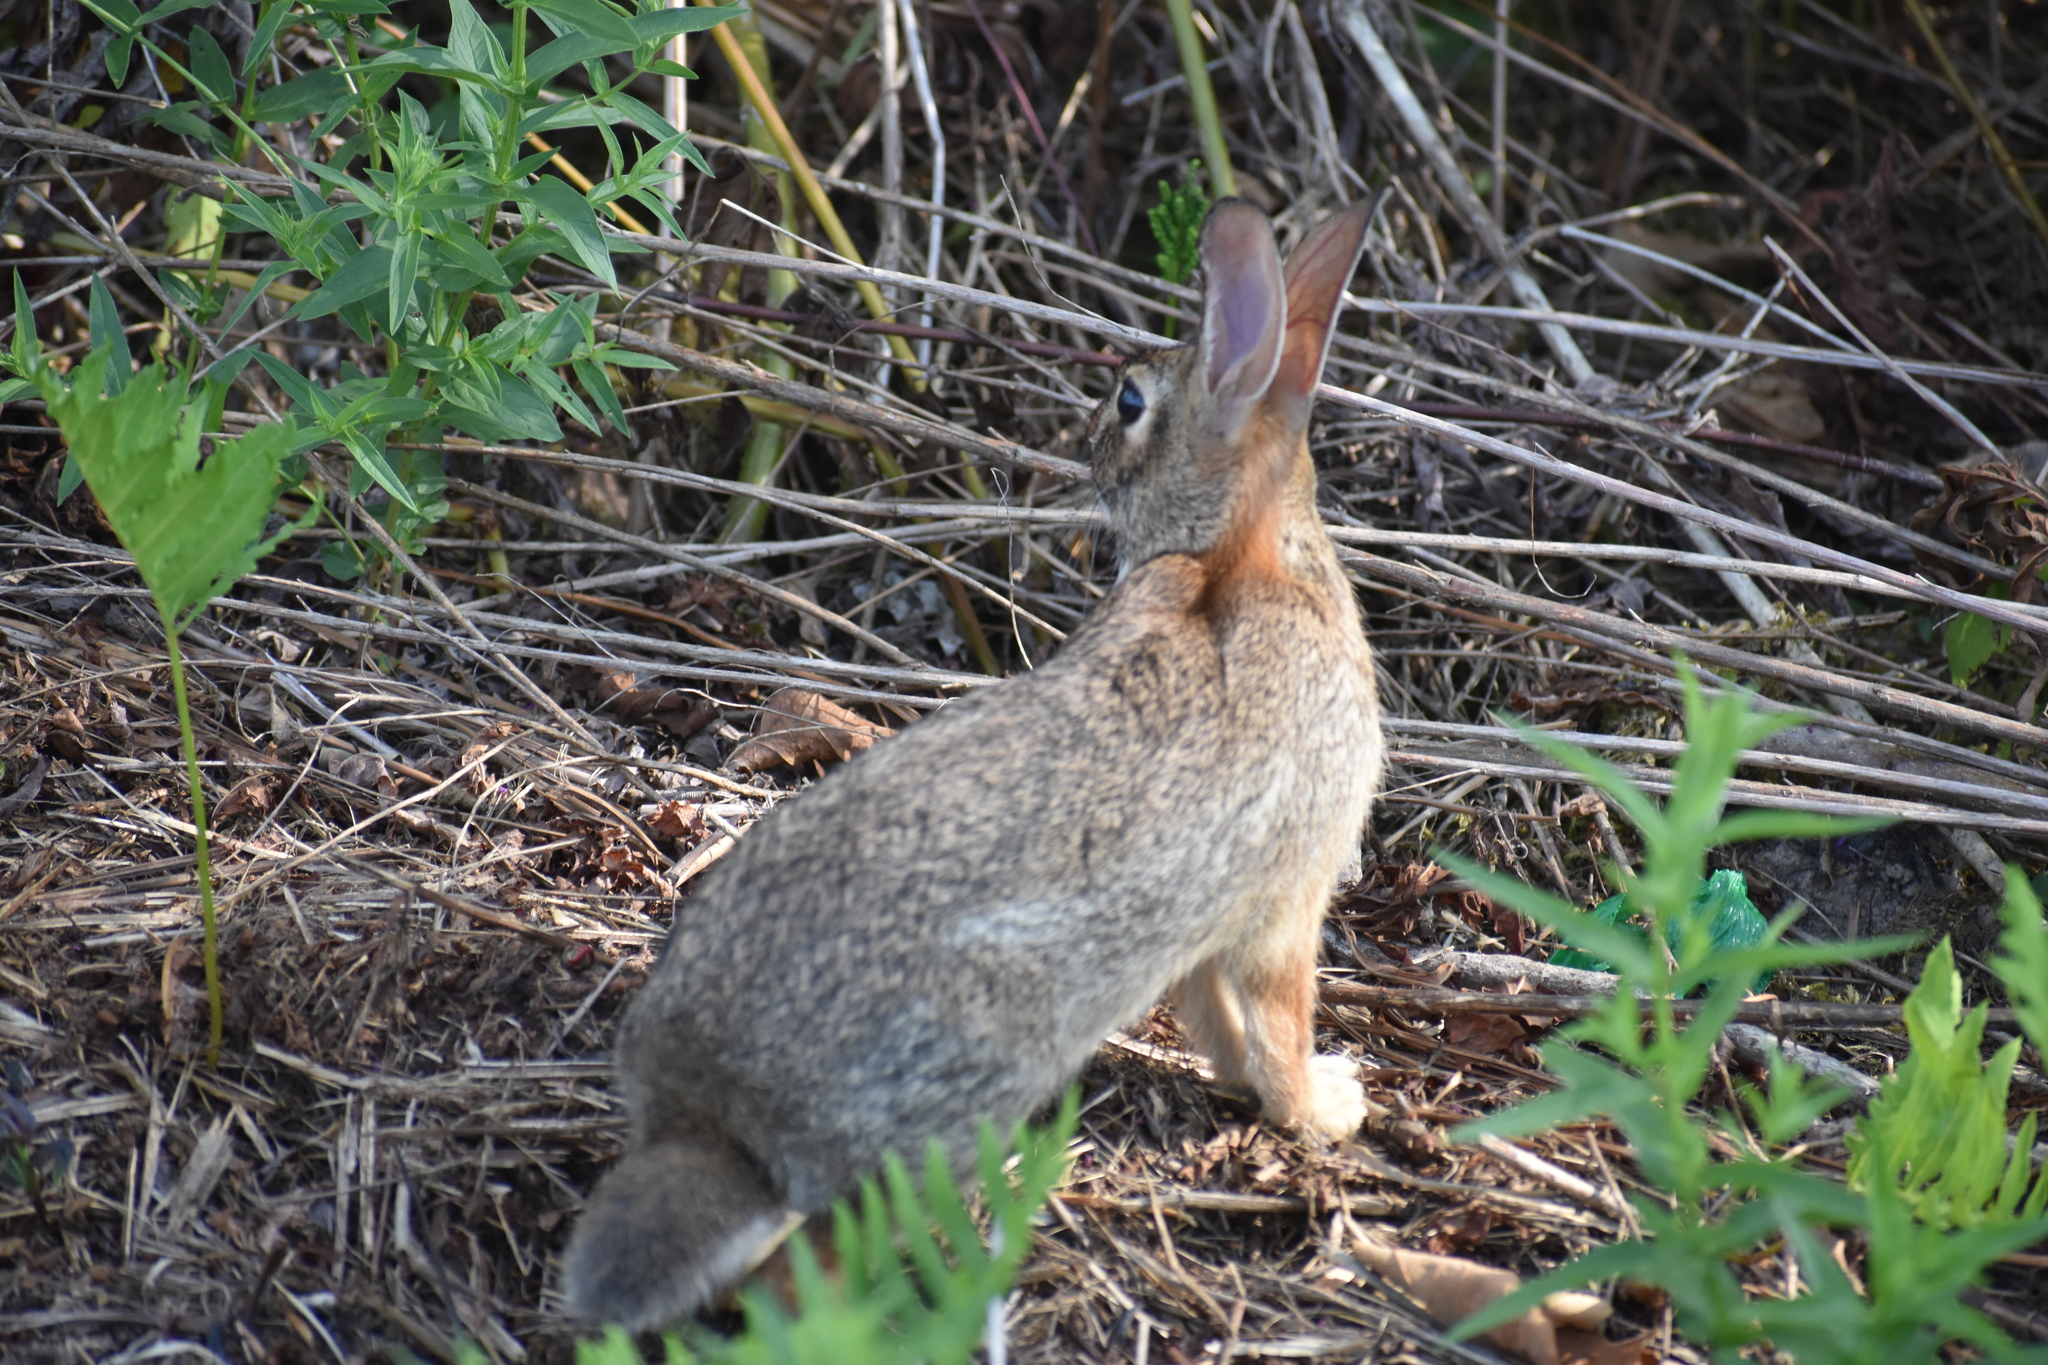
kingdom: Animalia
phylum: Chordata
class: Mammalia
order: Lagomorpha
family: Leporidae
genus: Sylvilagus
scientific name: Sylvilagus floridanus
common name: Eastern cottontail
